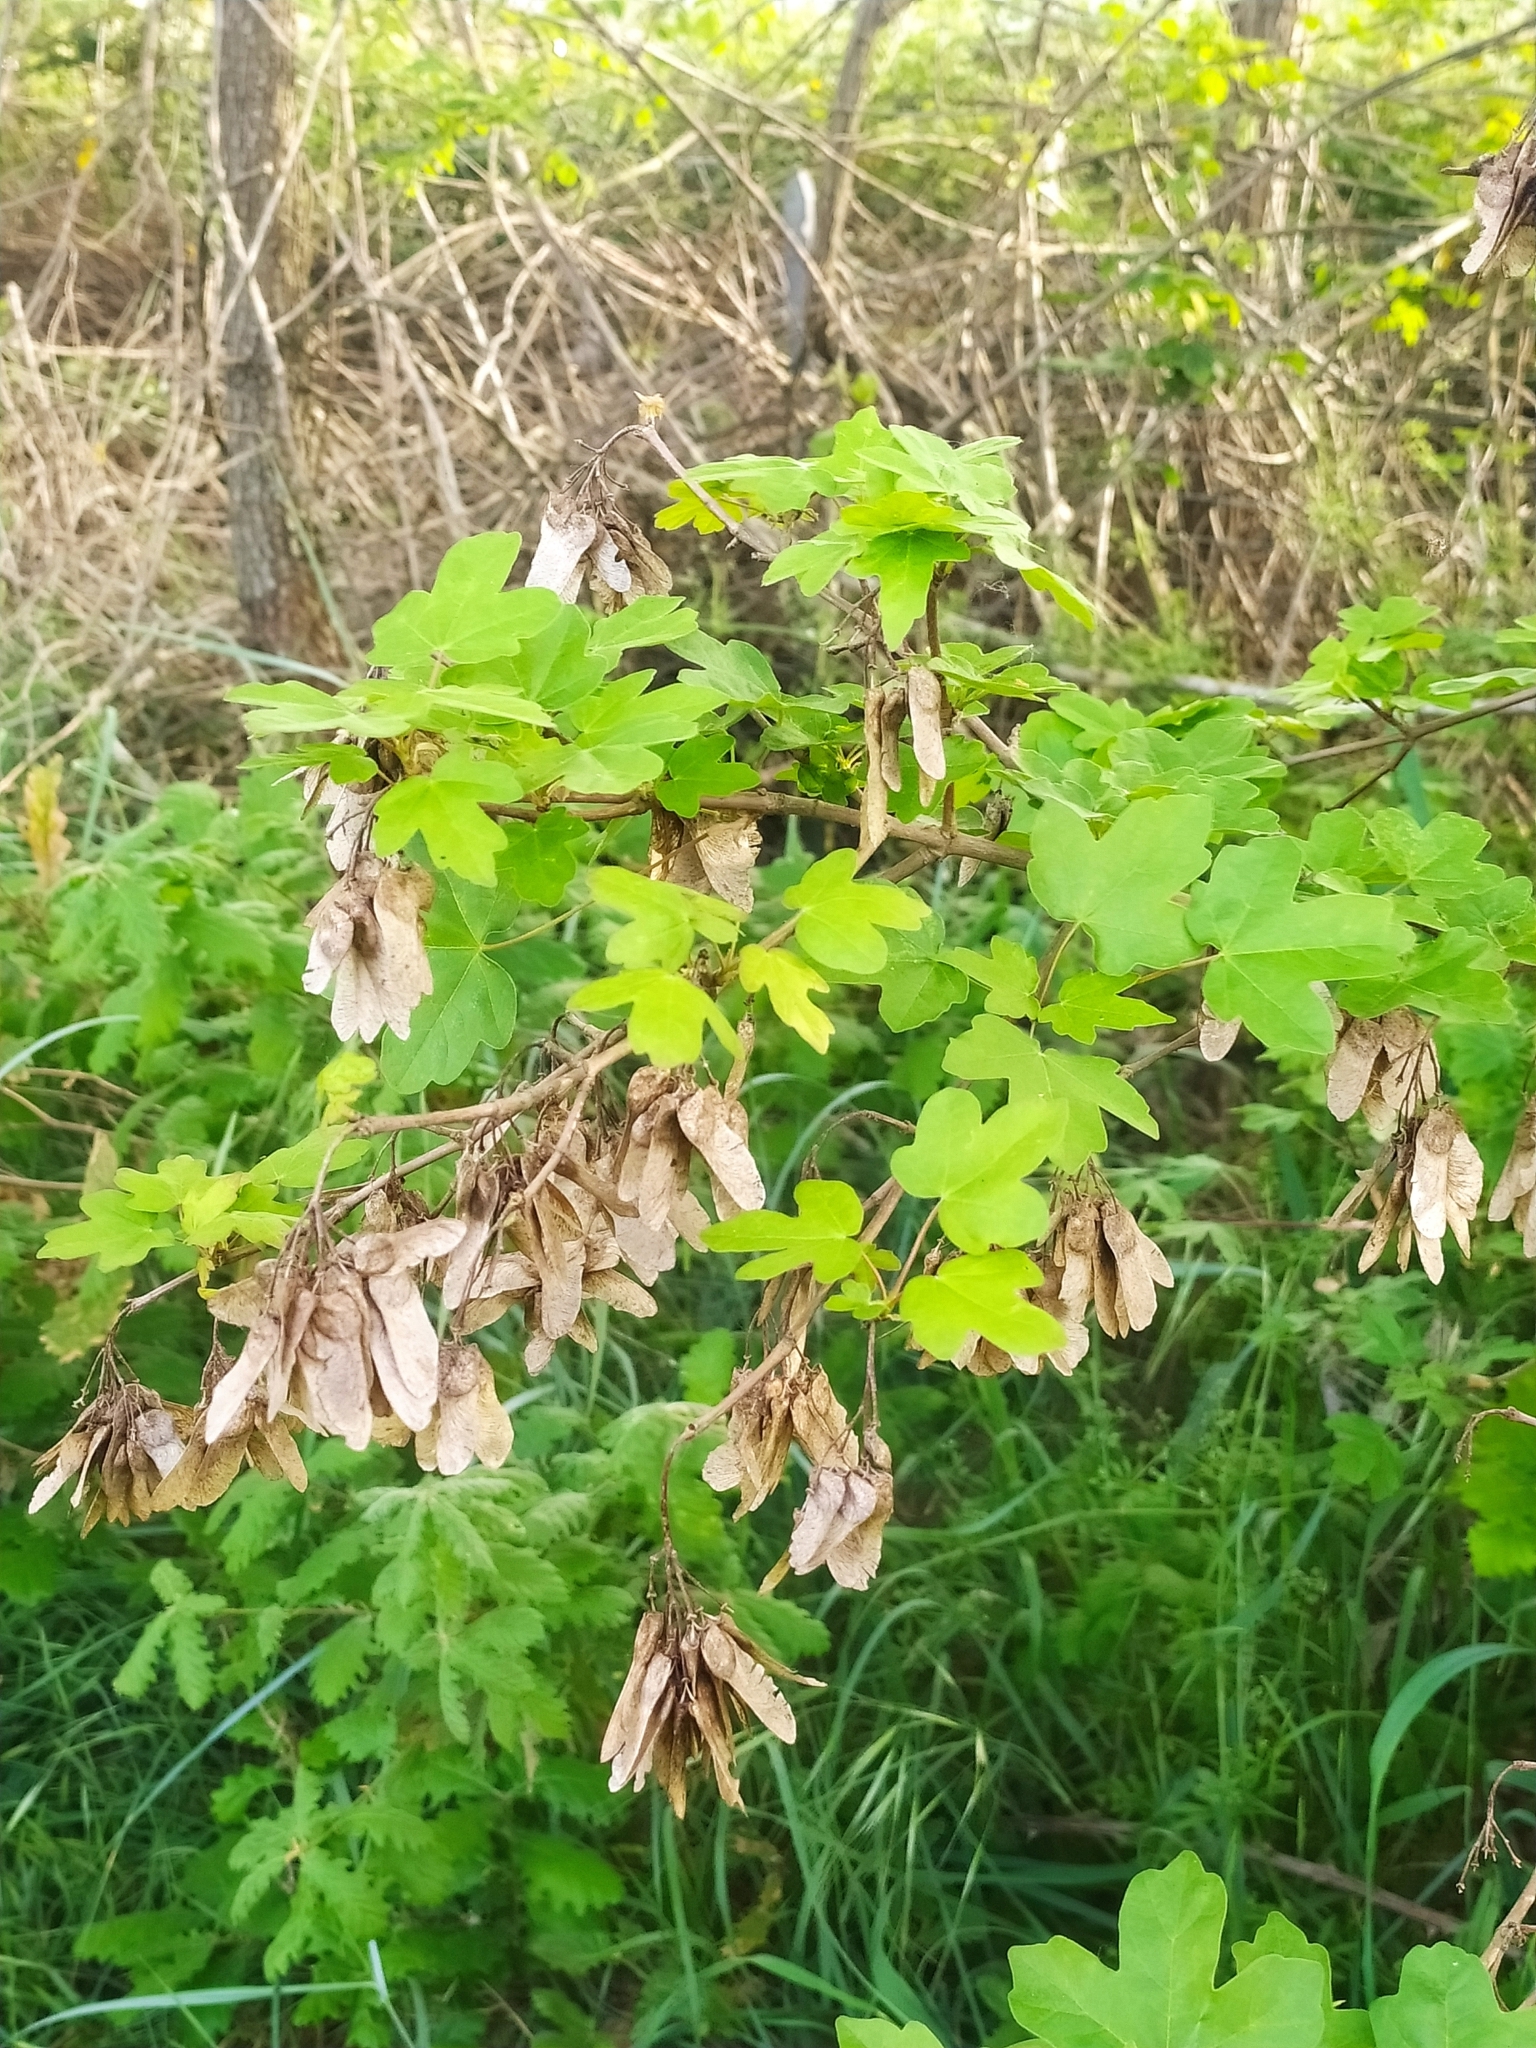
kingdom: Plantae
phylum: Tracheophyta
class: Magnoliopsida
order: Sapindales
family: Sapindaceae
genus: Acer
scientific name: Acer campestre
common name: Field maple
